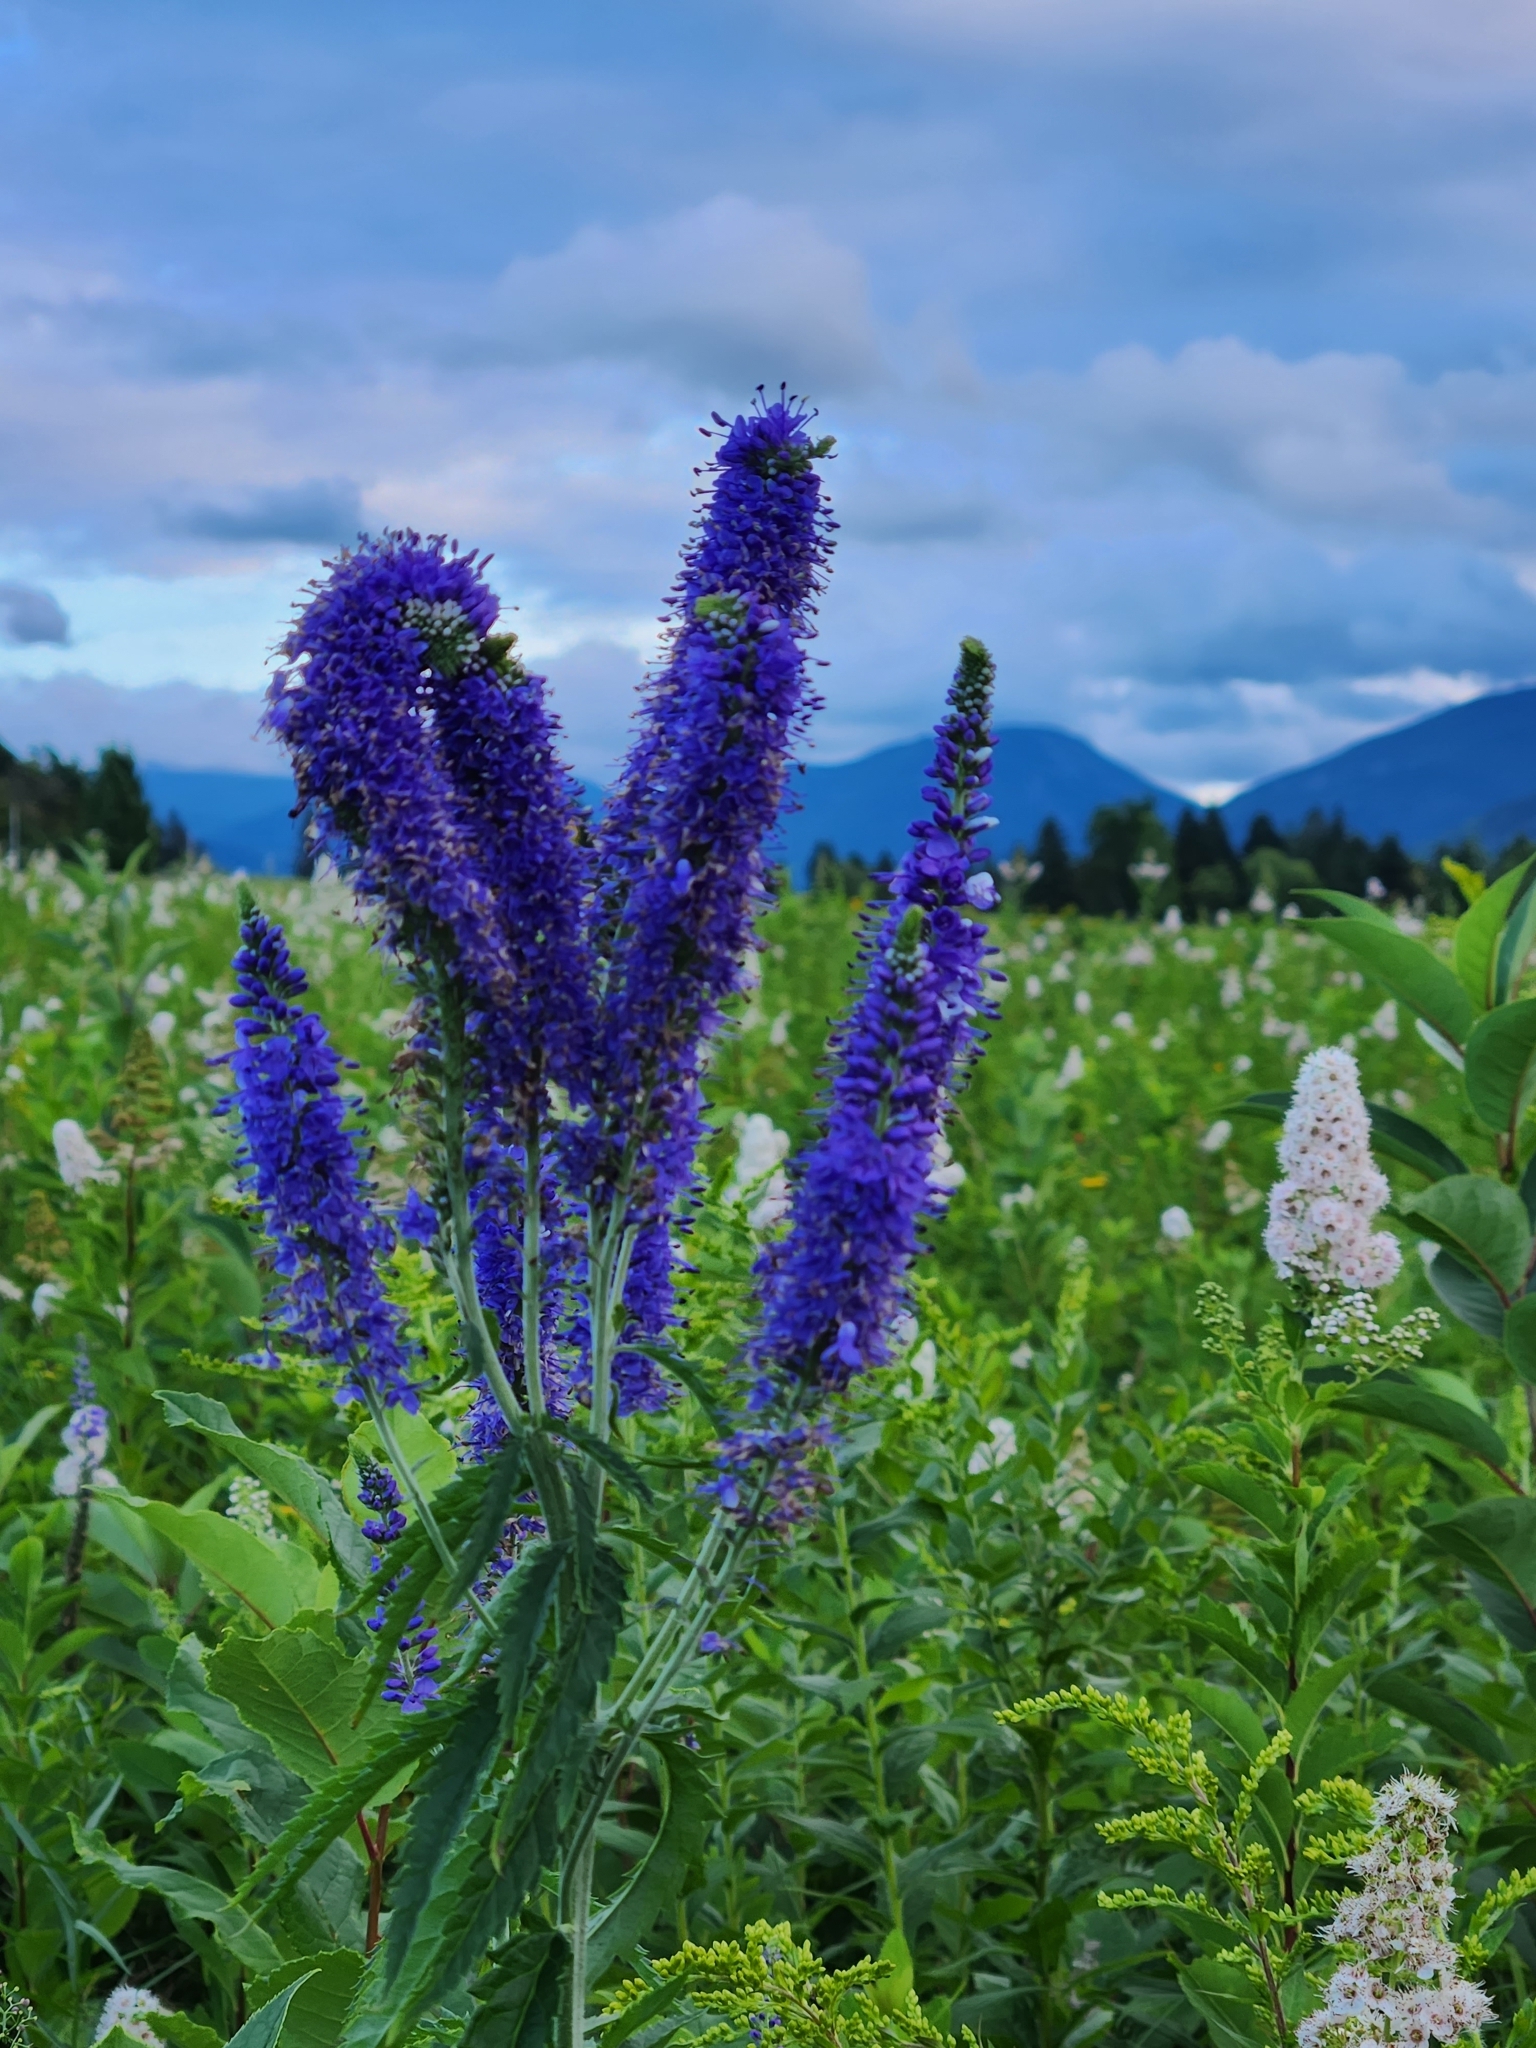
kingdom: Plantae
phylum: Tracheophyta
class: Magnoliopsida
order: Lamiales
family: Plantaginaceae
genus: Veronica
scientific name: Veronica longifolia
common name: Garden speedwell
